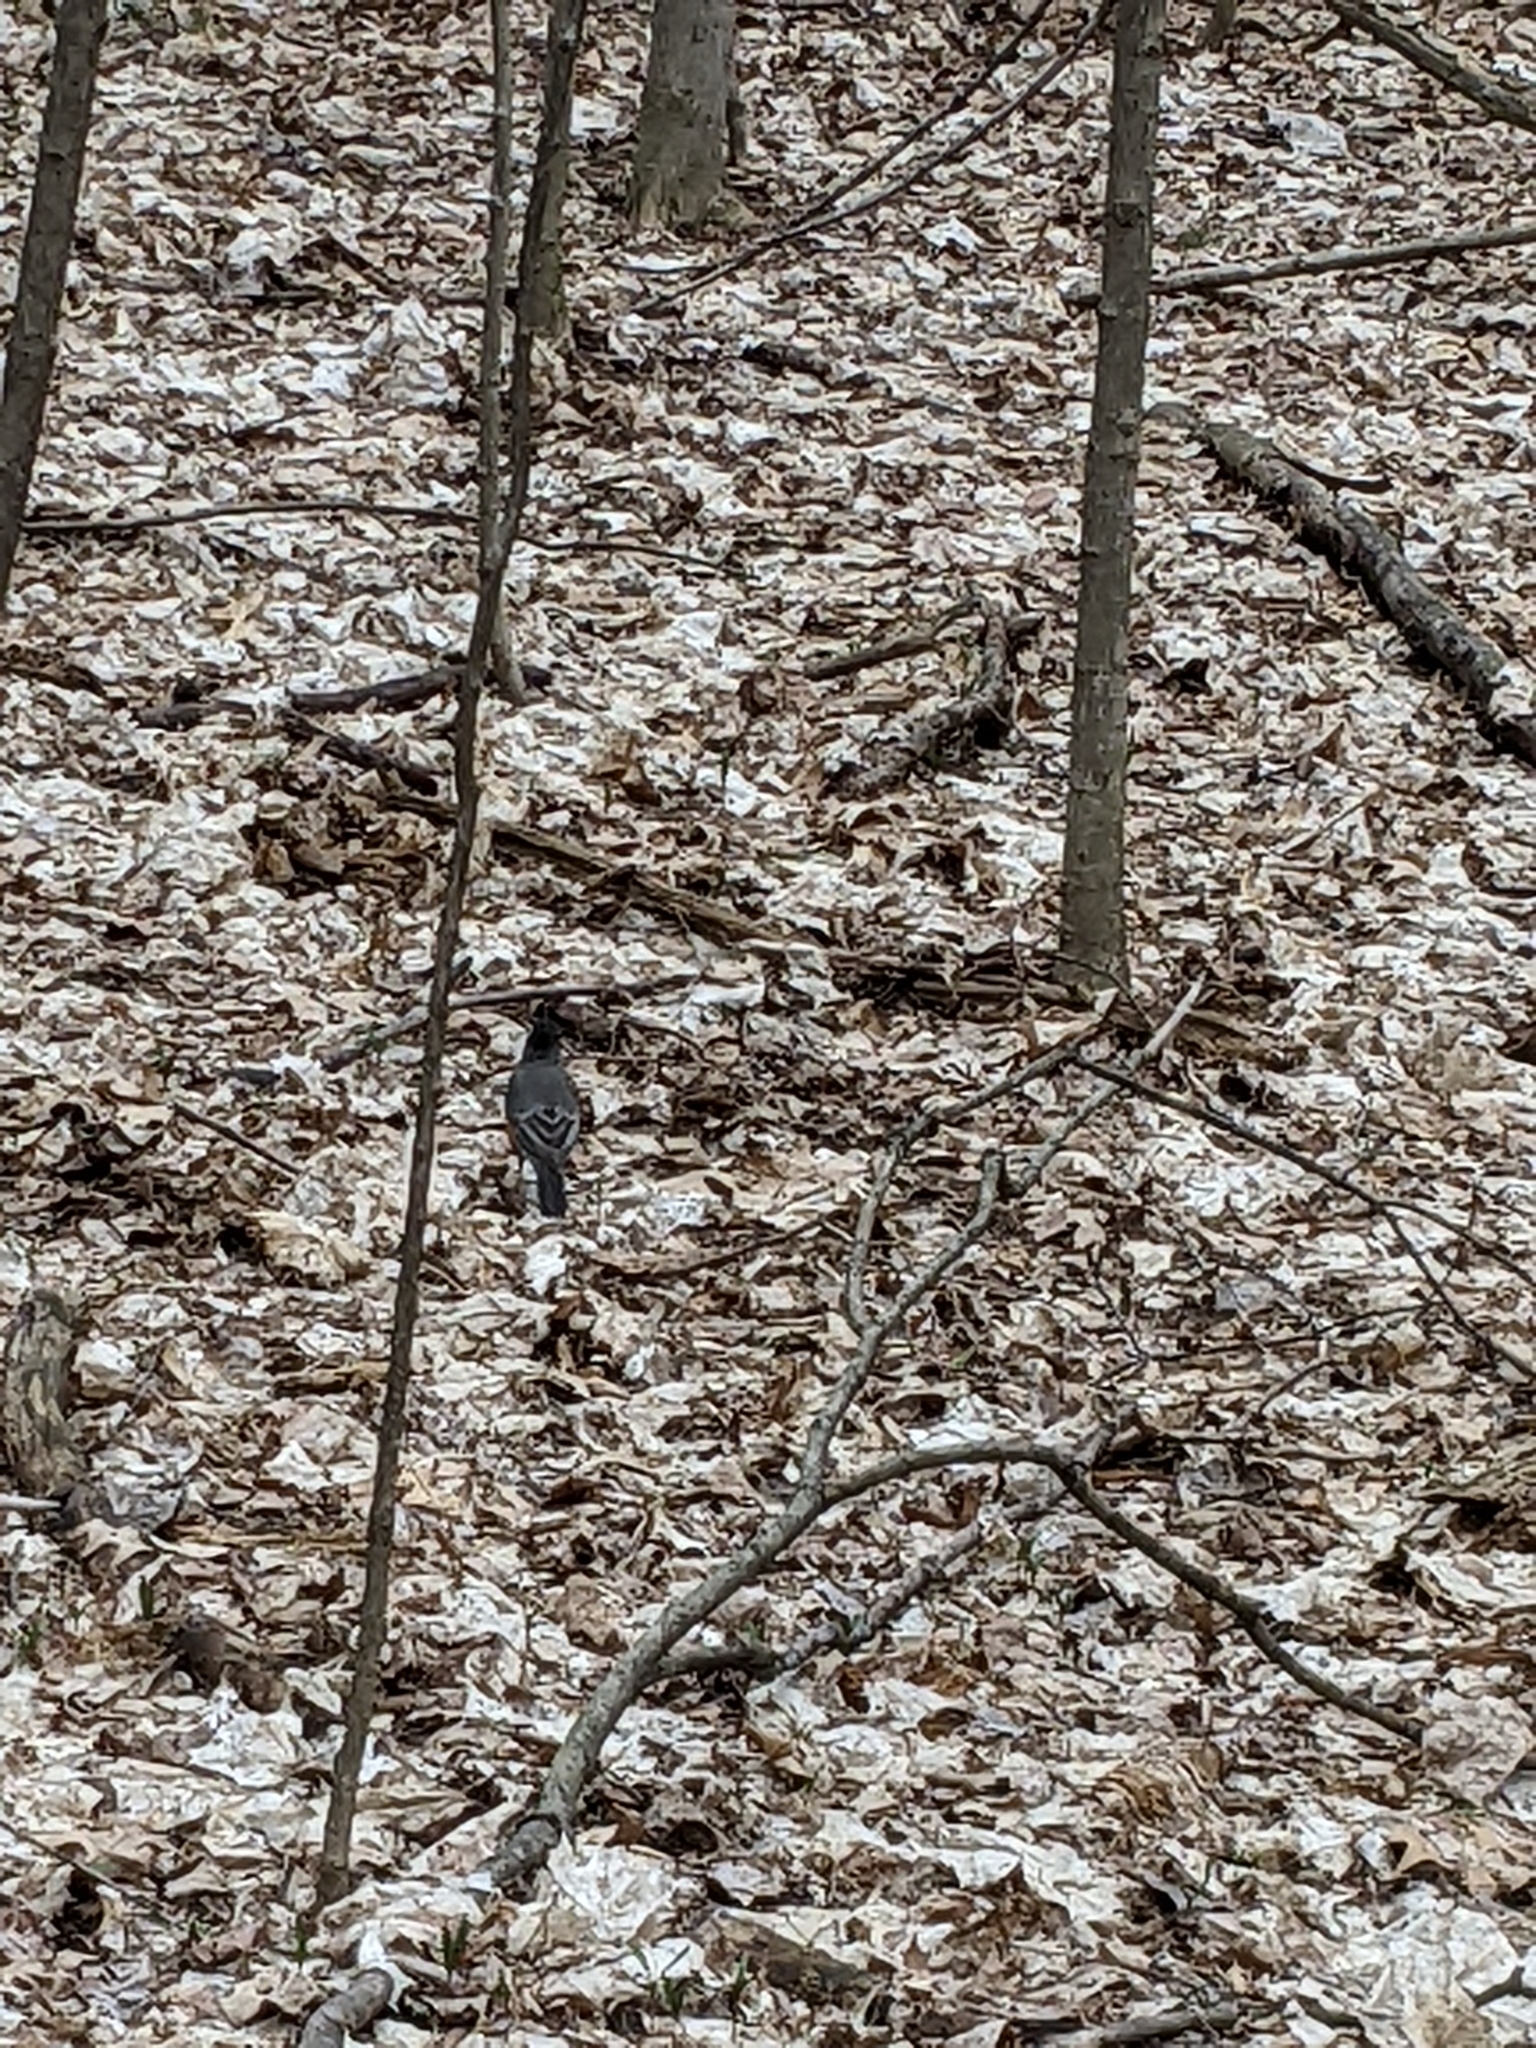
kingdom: Animalia
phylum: Chordata
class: Aves
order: Passeriformes
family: Turdidae
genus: Turdus
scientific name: Turdus migratorius
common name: American robin
